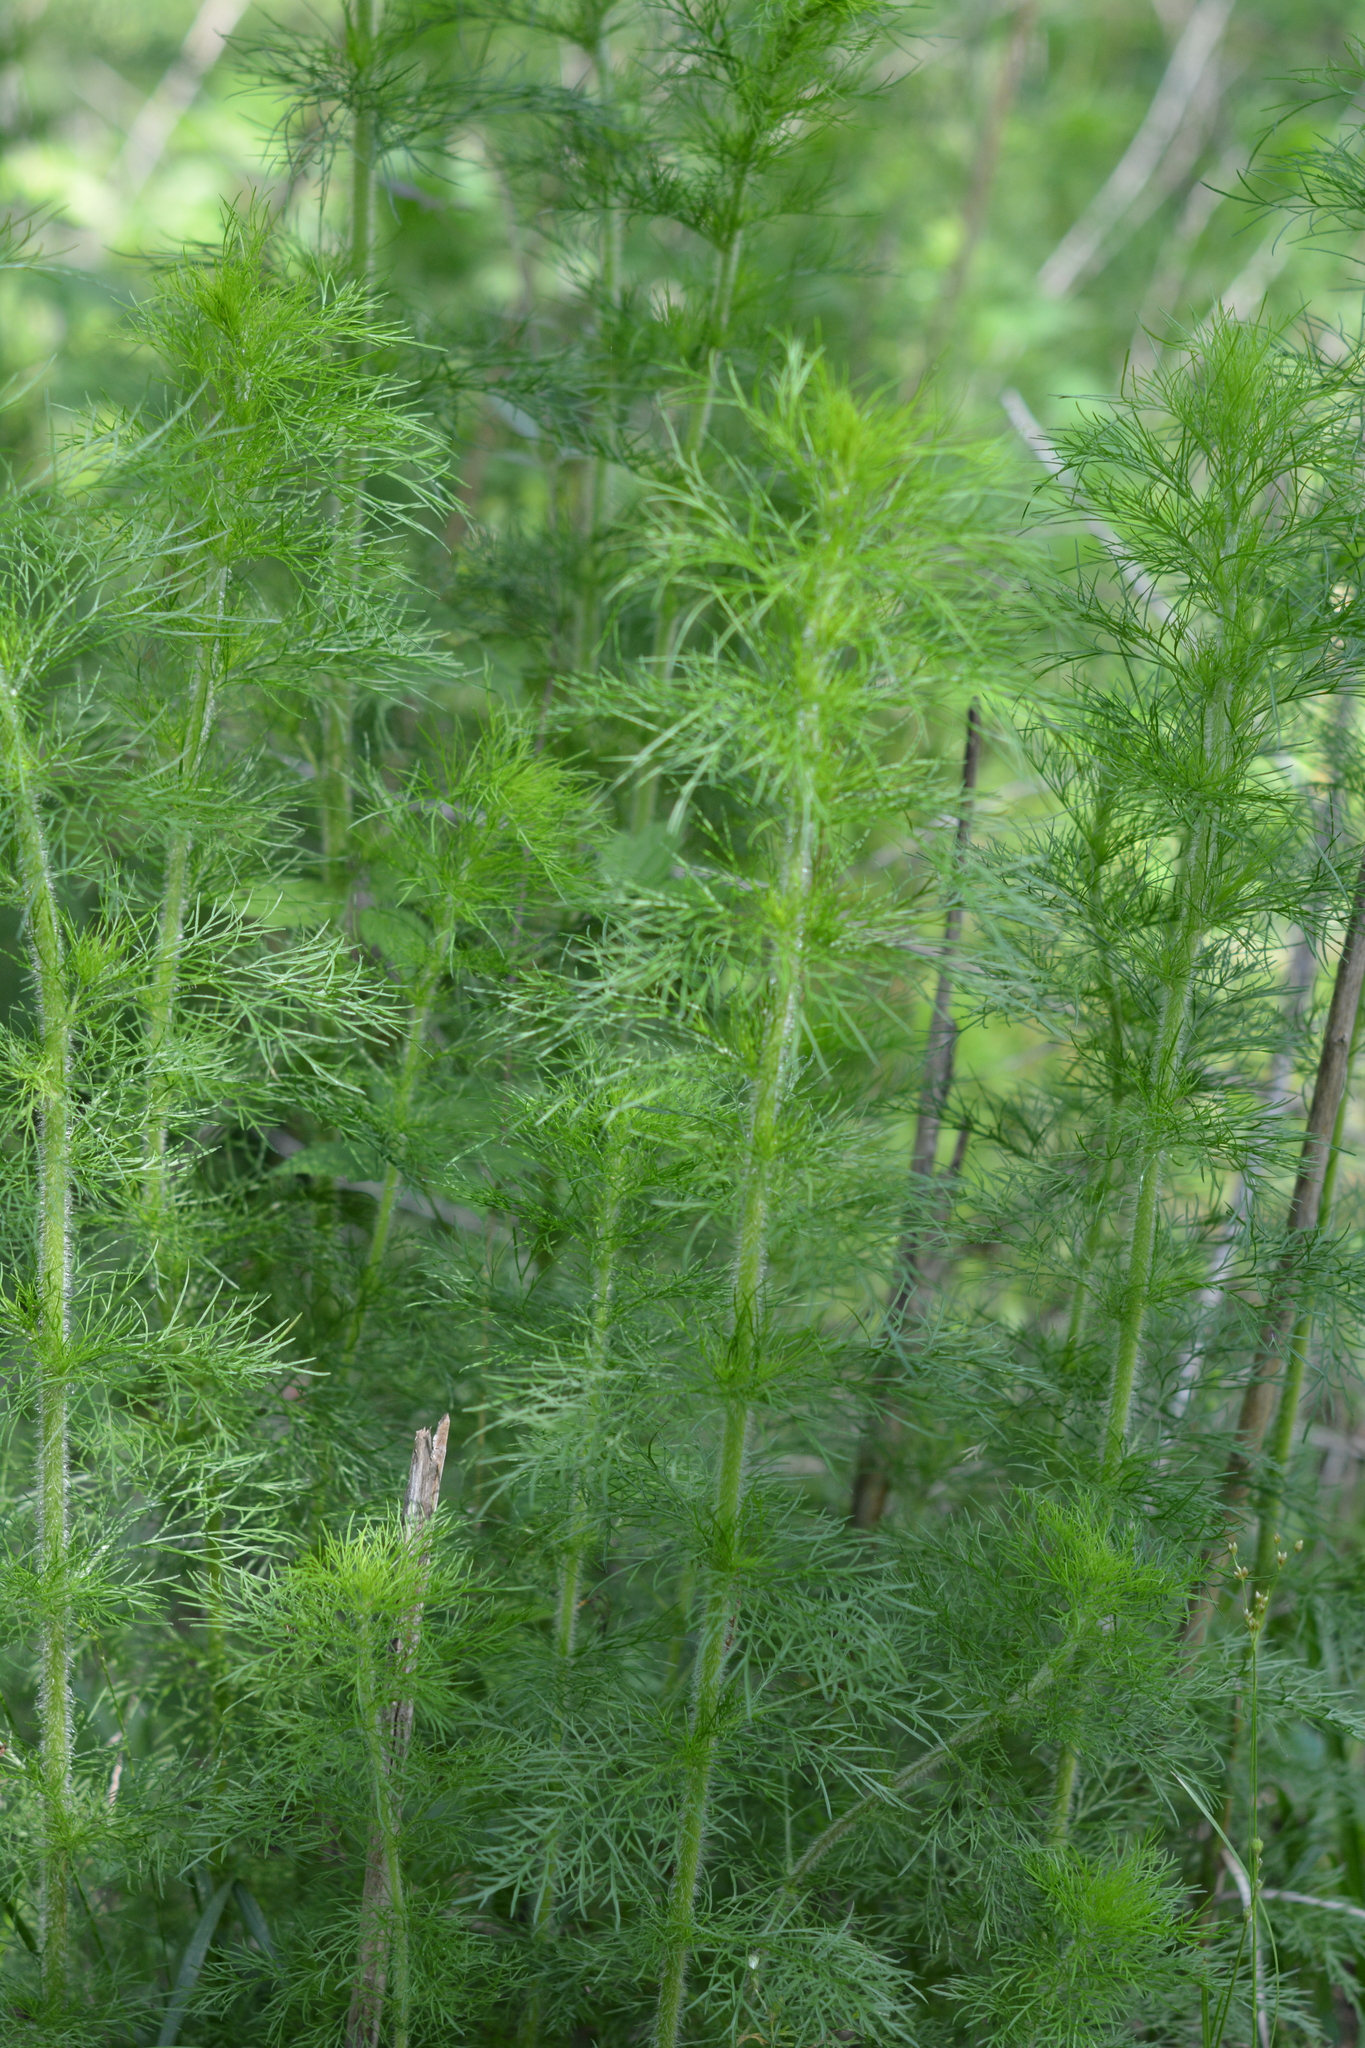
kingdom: Plantae
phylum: Tracheophyta
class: Magnoliopsida
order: Asterales
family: Asteraceae
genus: Eupatorium
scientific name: Eupatorium capillifolium
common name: Dog-fennel
